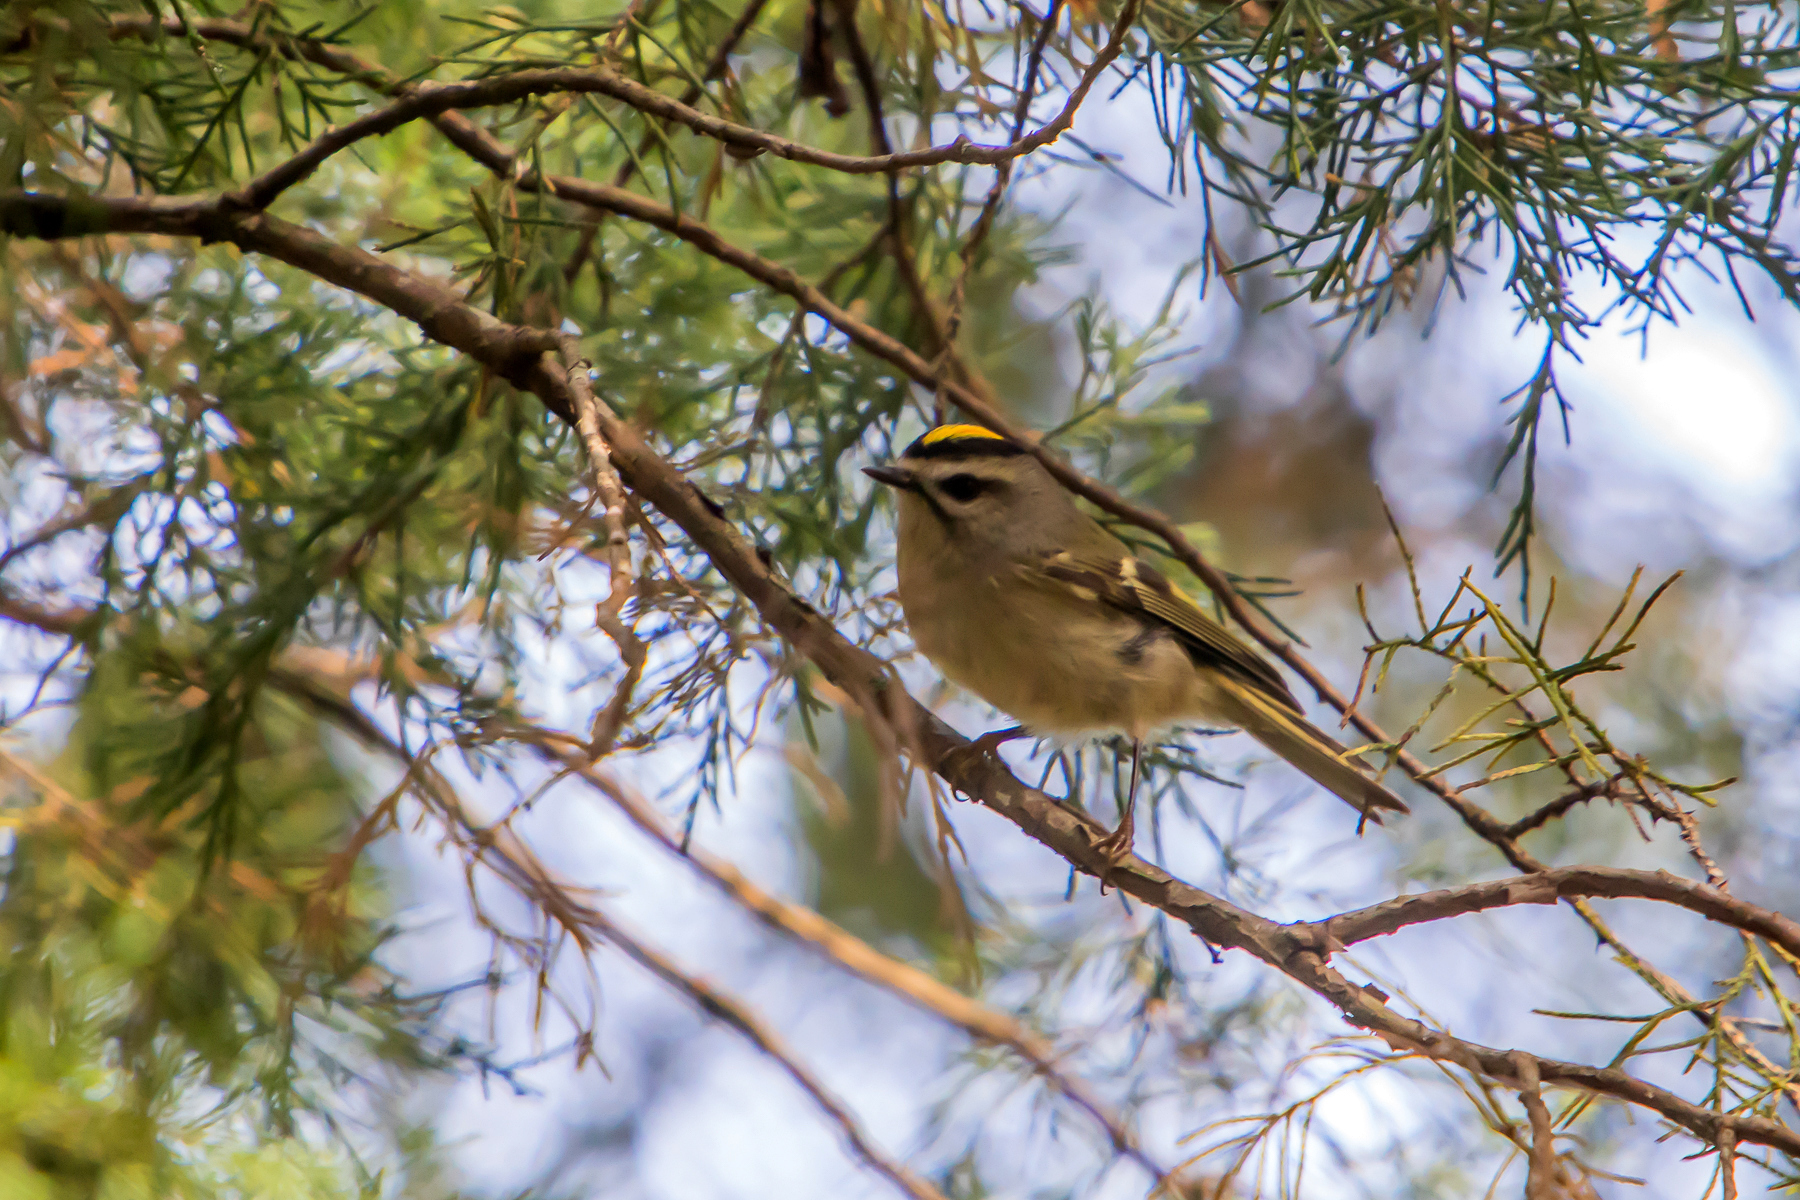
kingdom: Animalia
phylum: Chordata
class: Aves
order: Passeriformes
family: Regulidae
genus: Regulus
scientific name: Regulus satrapa
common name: Golden-crowned kinglet
